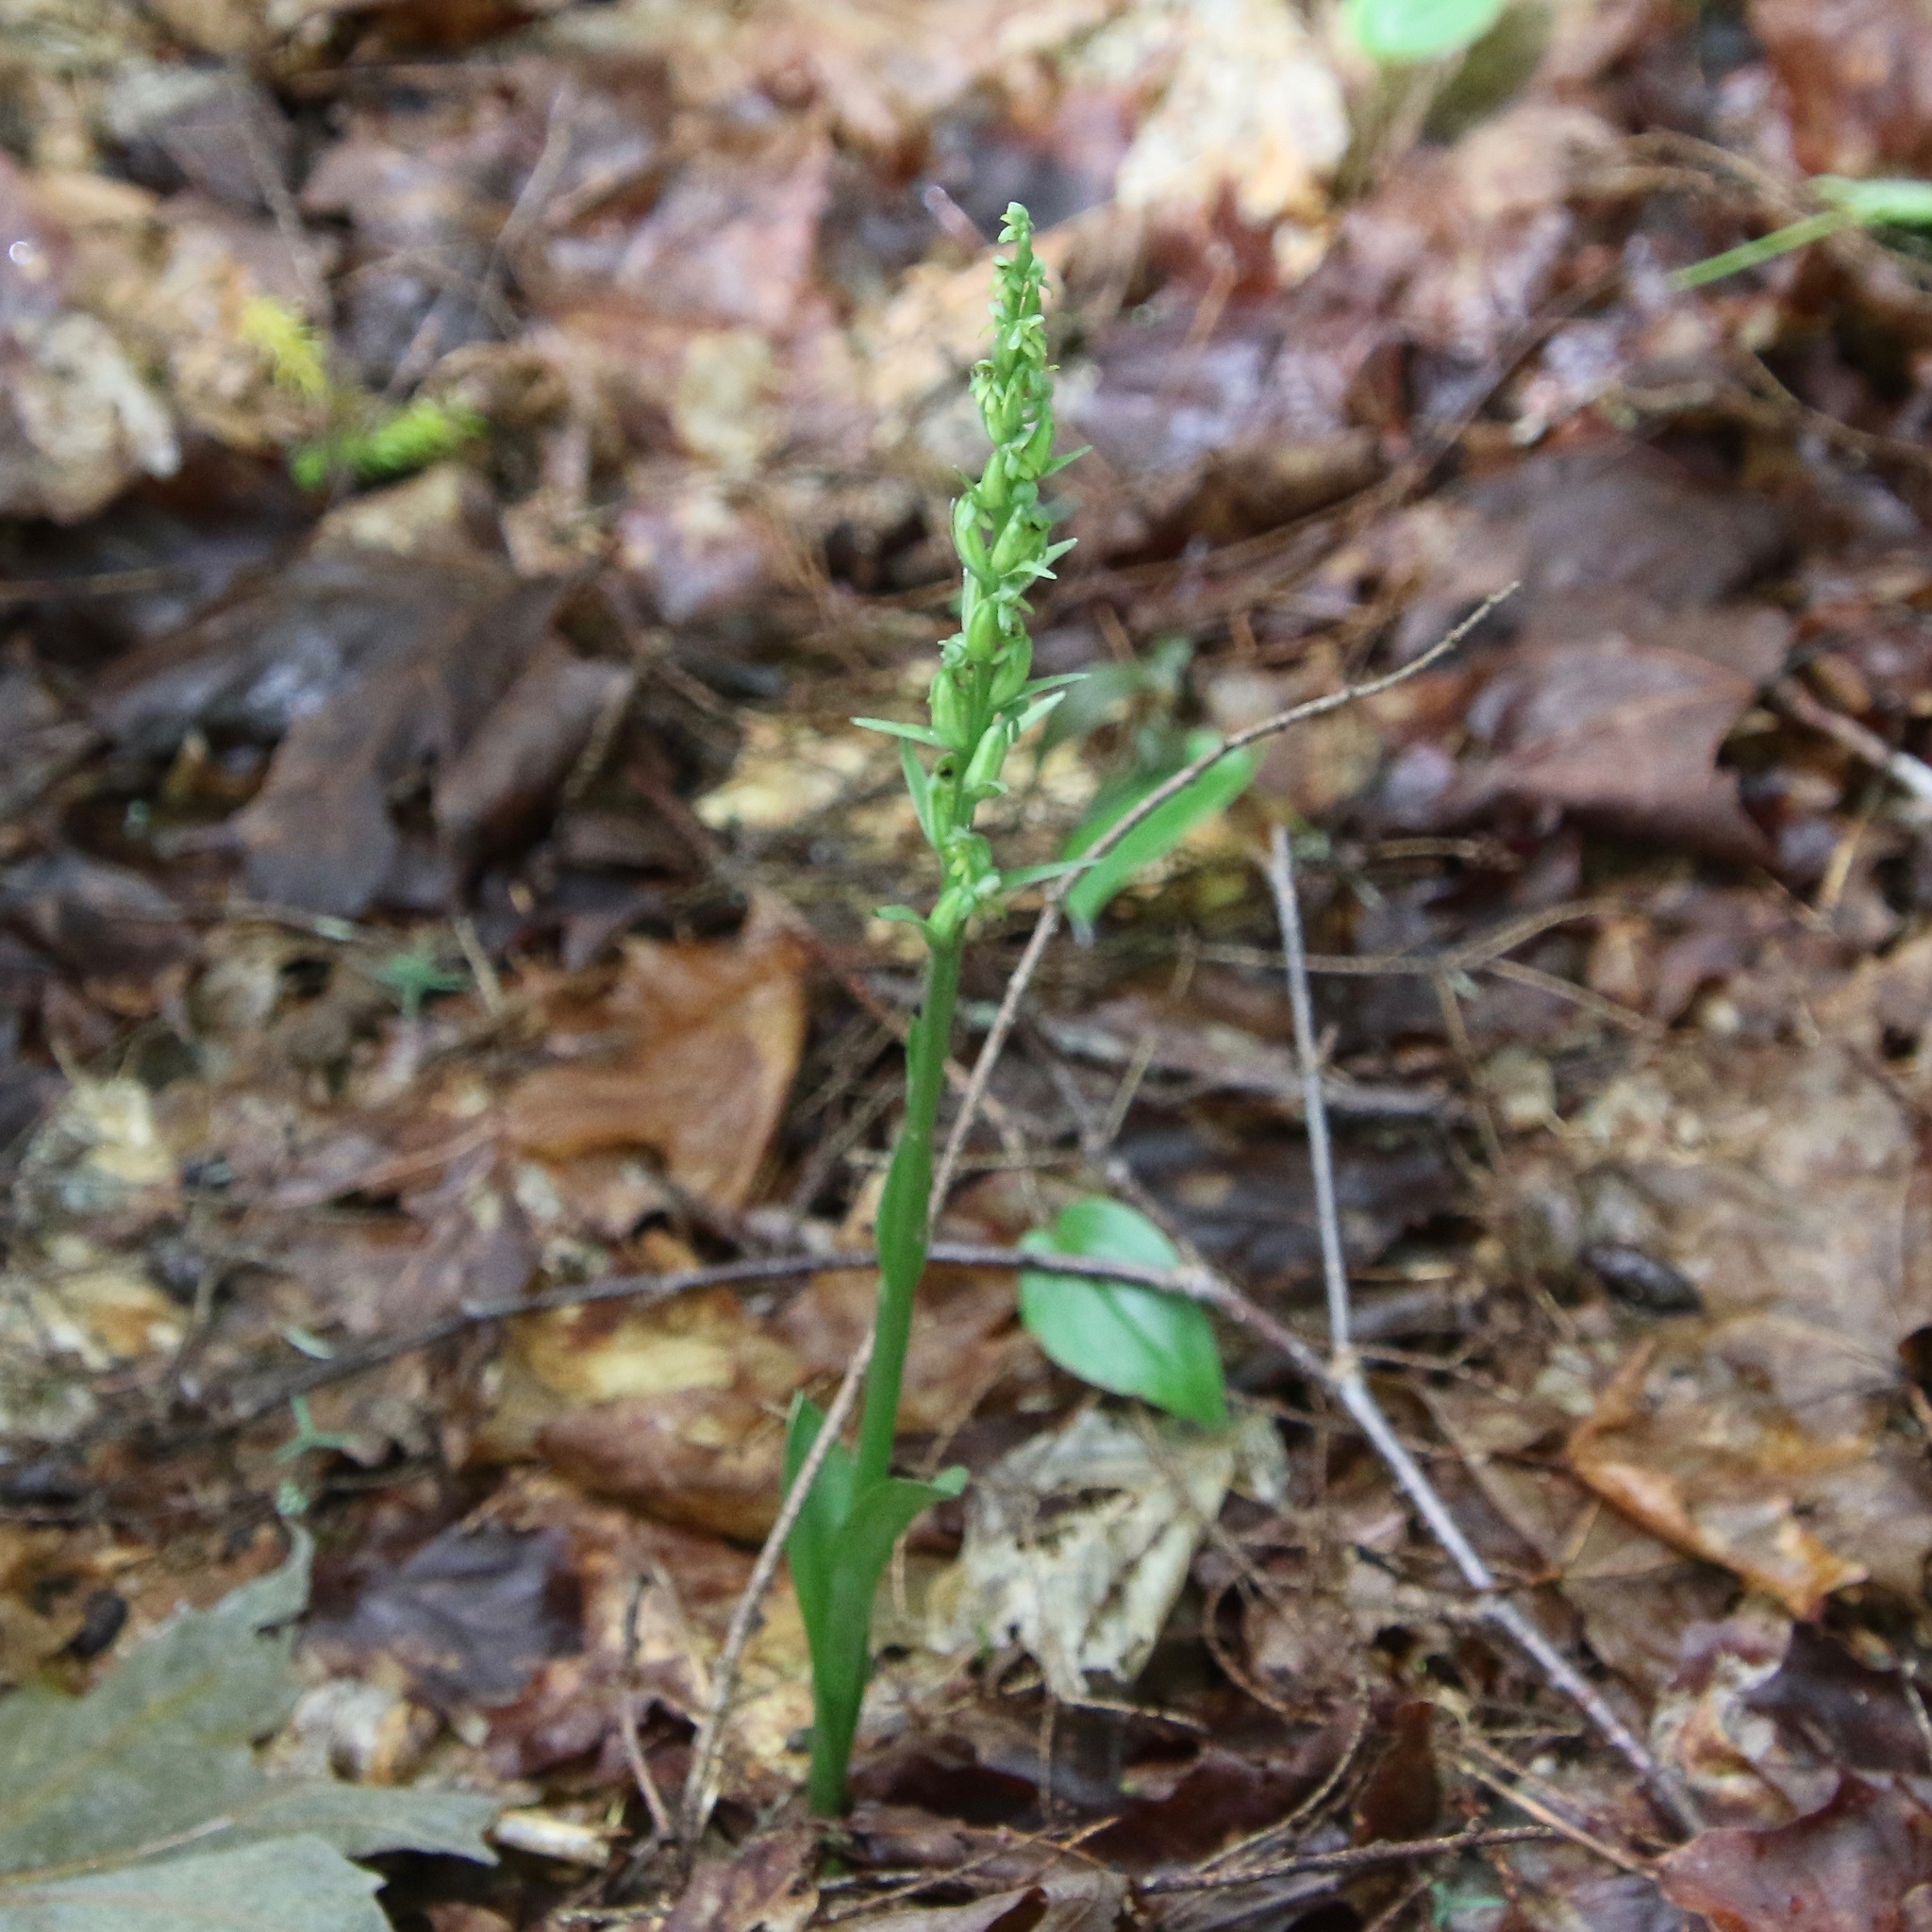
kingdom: Plantae
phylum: Tracheophyta
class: Liliopsida
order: Asparagales
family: Orchidaceae
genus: Platanthera
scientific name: Platanthera aquilonis
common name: Northern green orchid
